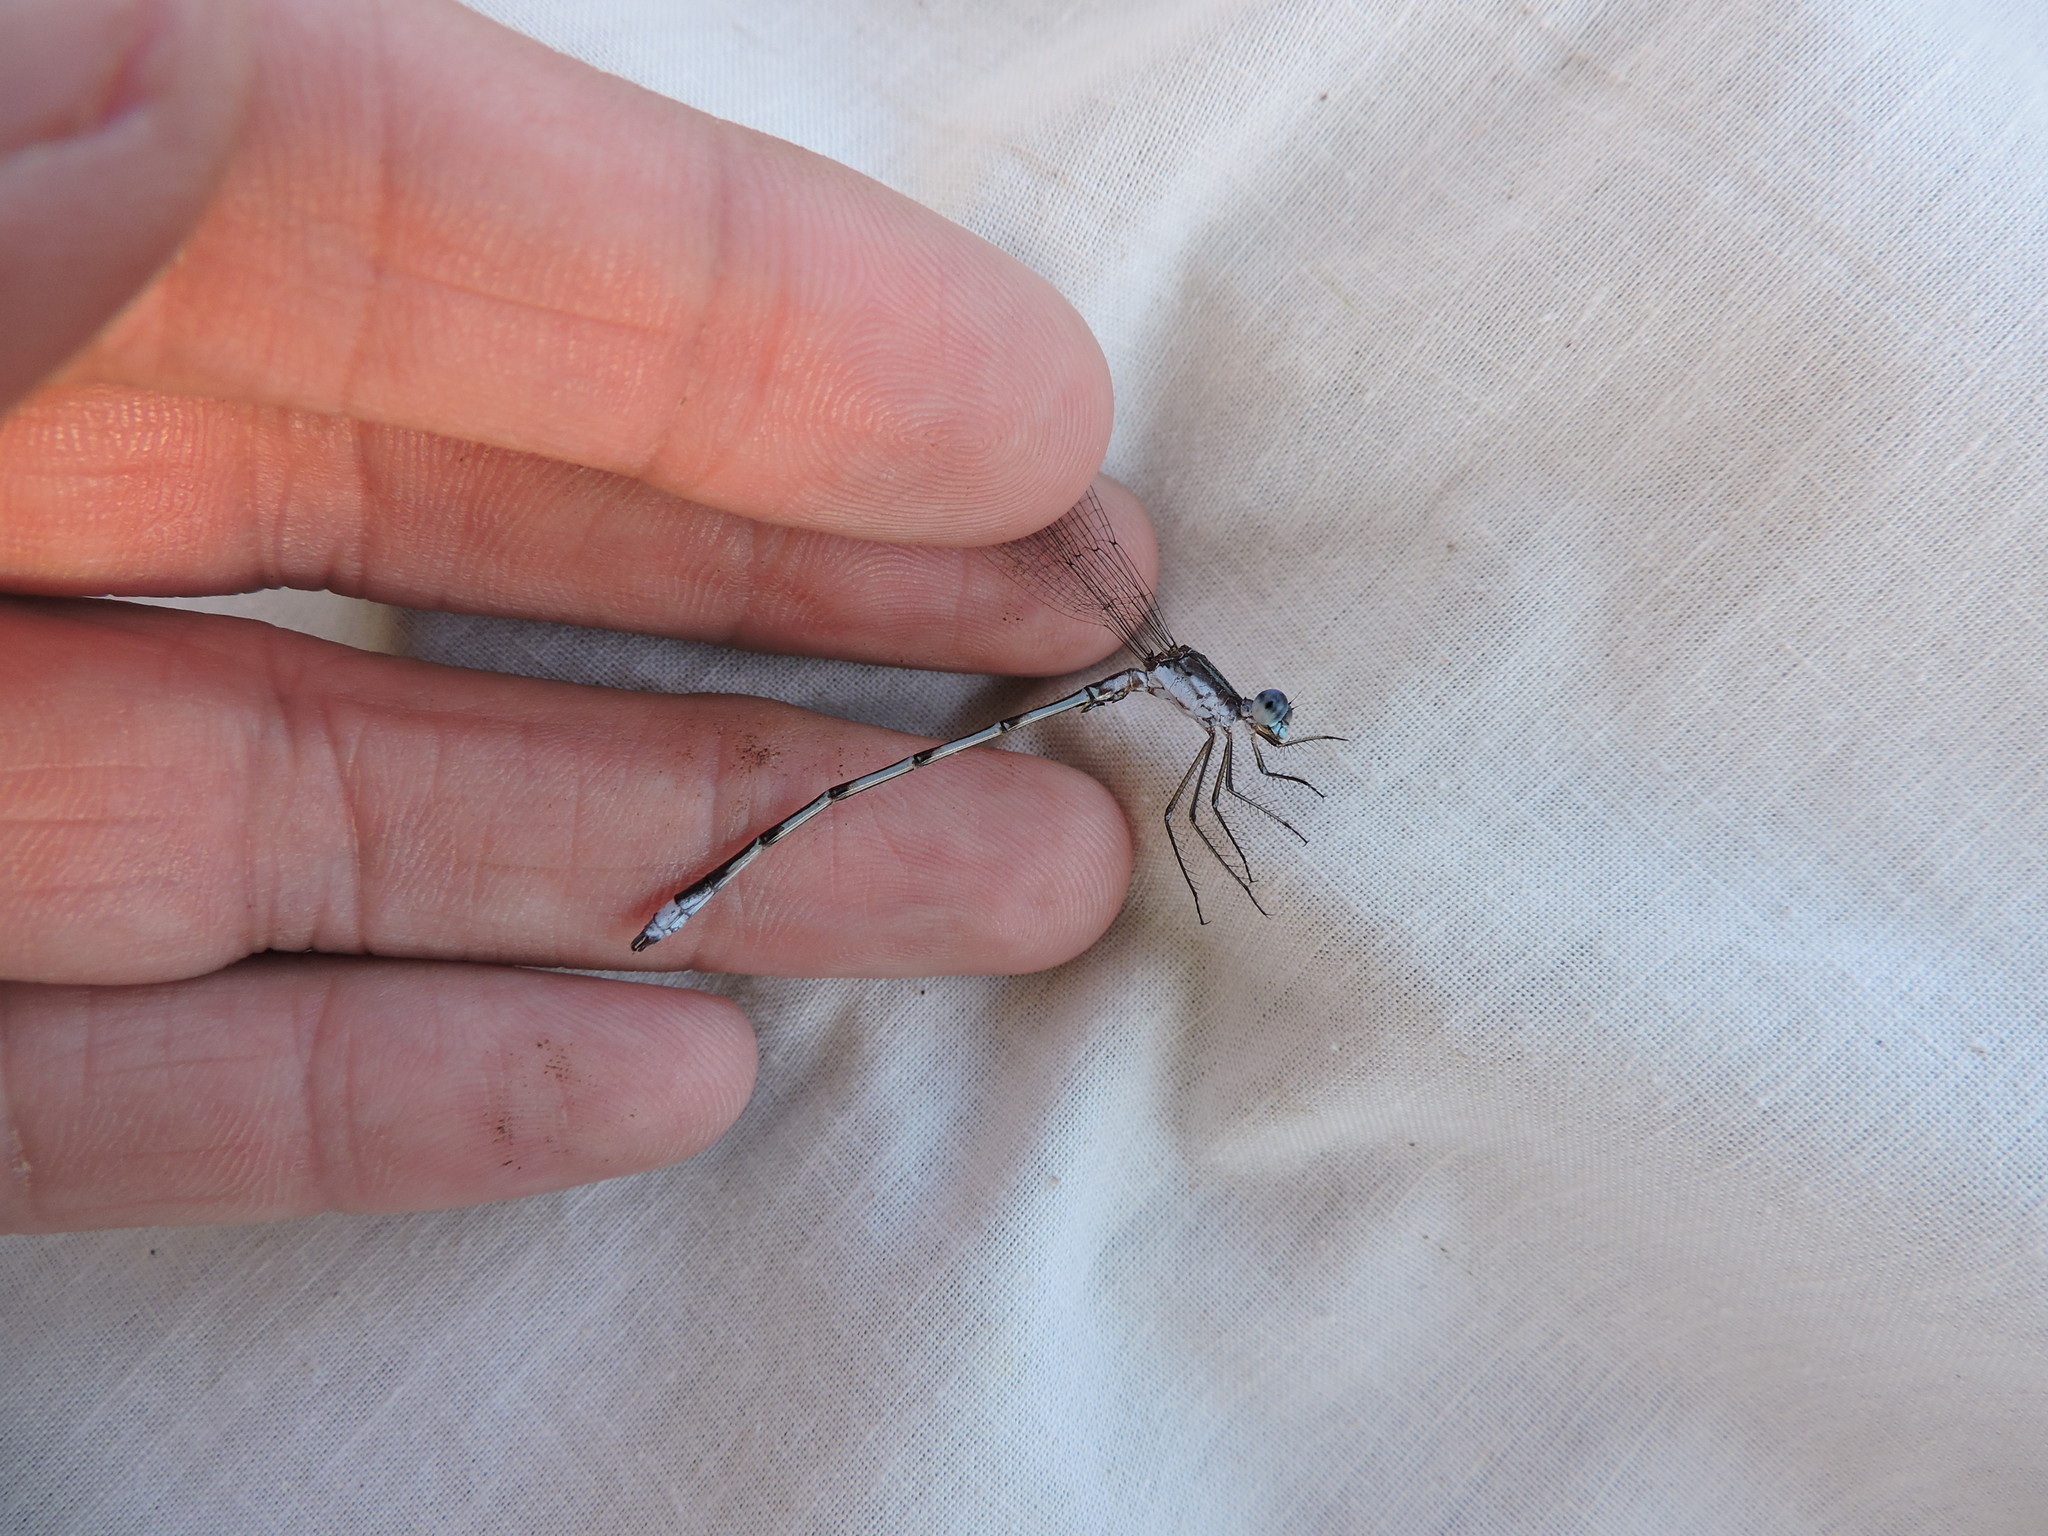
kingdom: Animalia
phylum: Arthropoda
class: Insecta
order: Odonata
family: Lestidae
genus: Lestes
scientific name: Lestes australis
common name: Southern spreadwing
